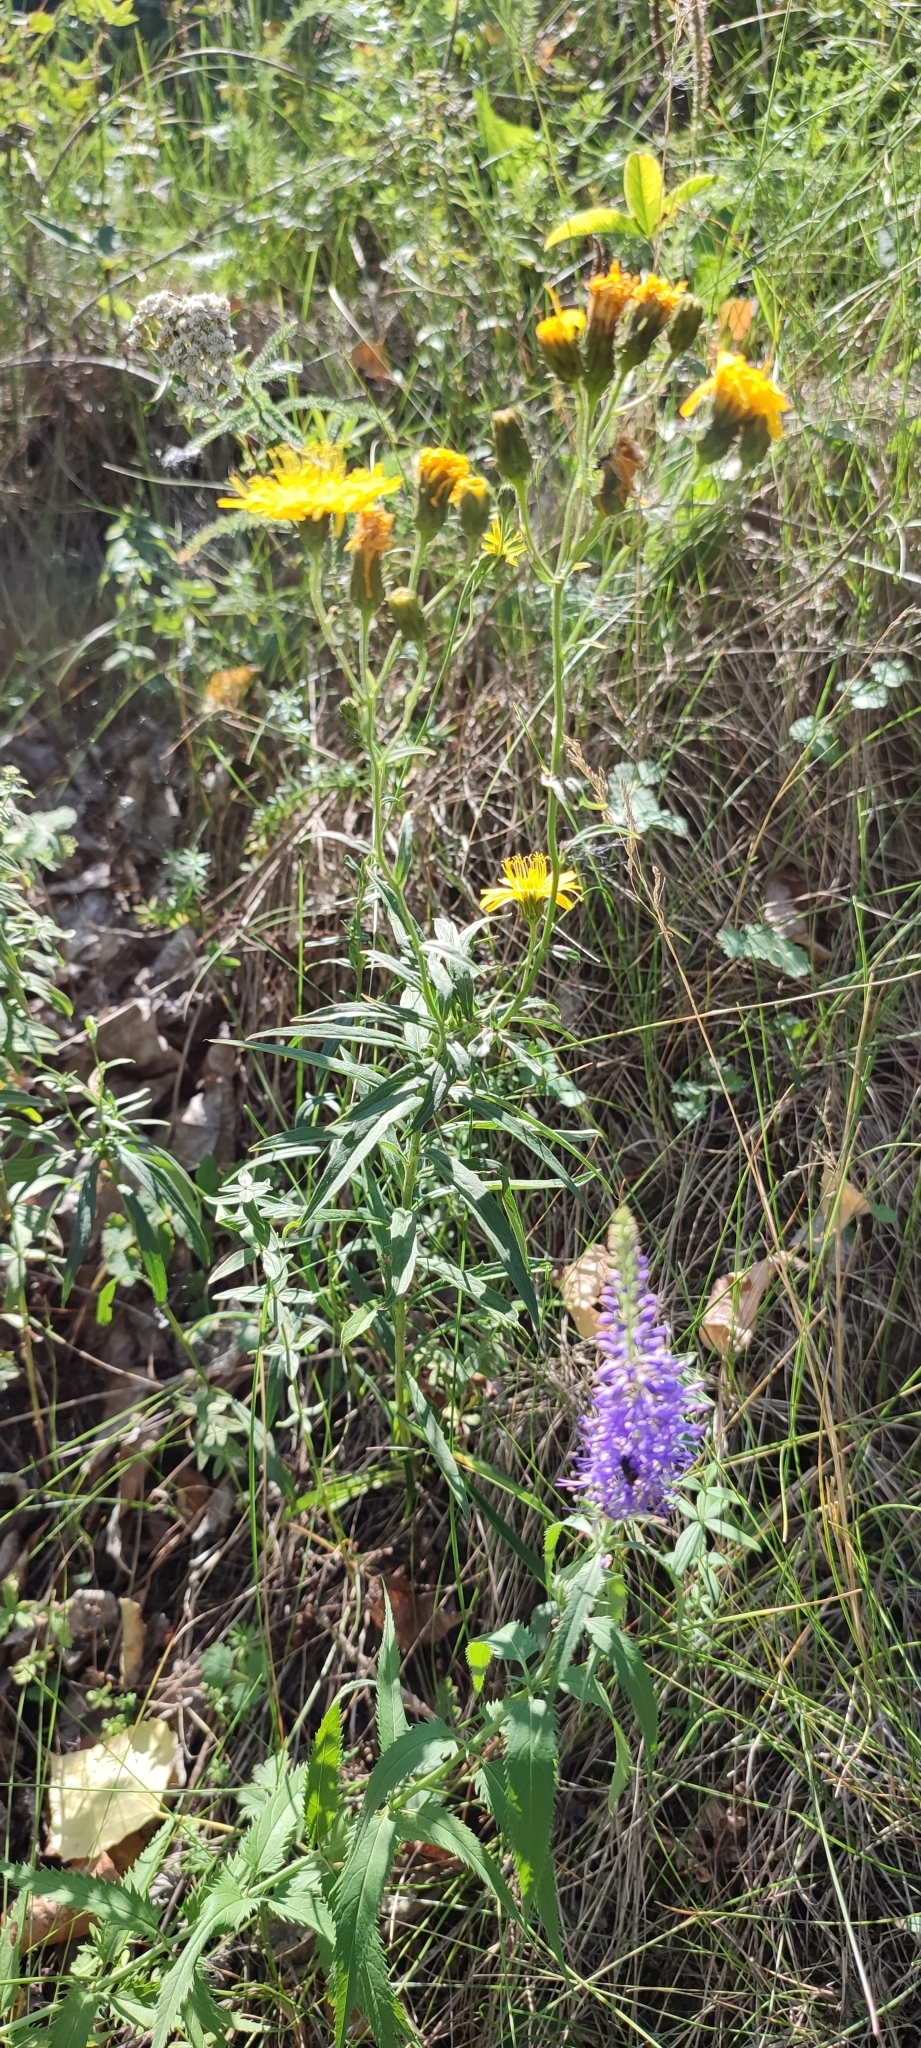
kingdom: Plantae
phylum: Tracheophyta
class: Magnoliopsida
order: Asterales
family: Asteraceae
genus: Hieracium
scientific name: Hieracium umbellatum
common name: Northern hawkweed
